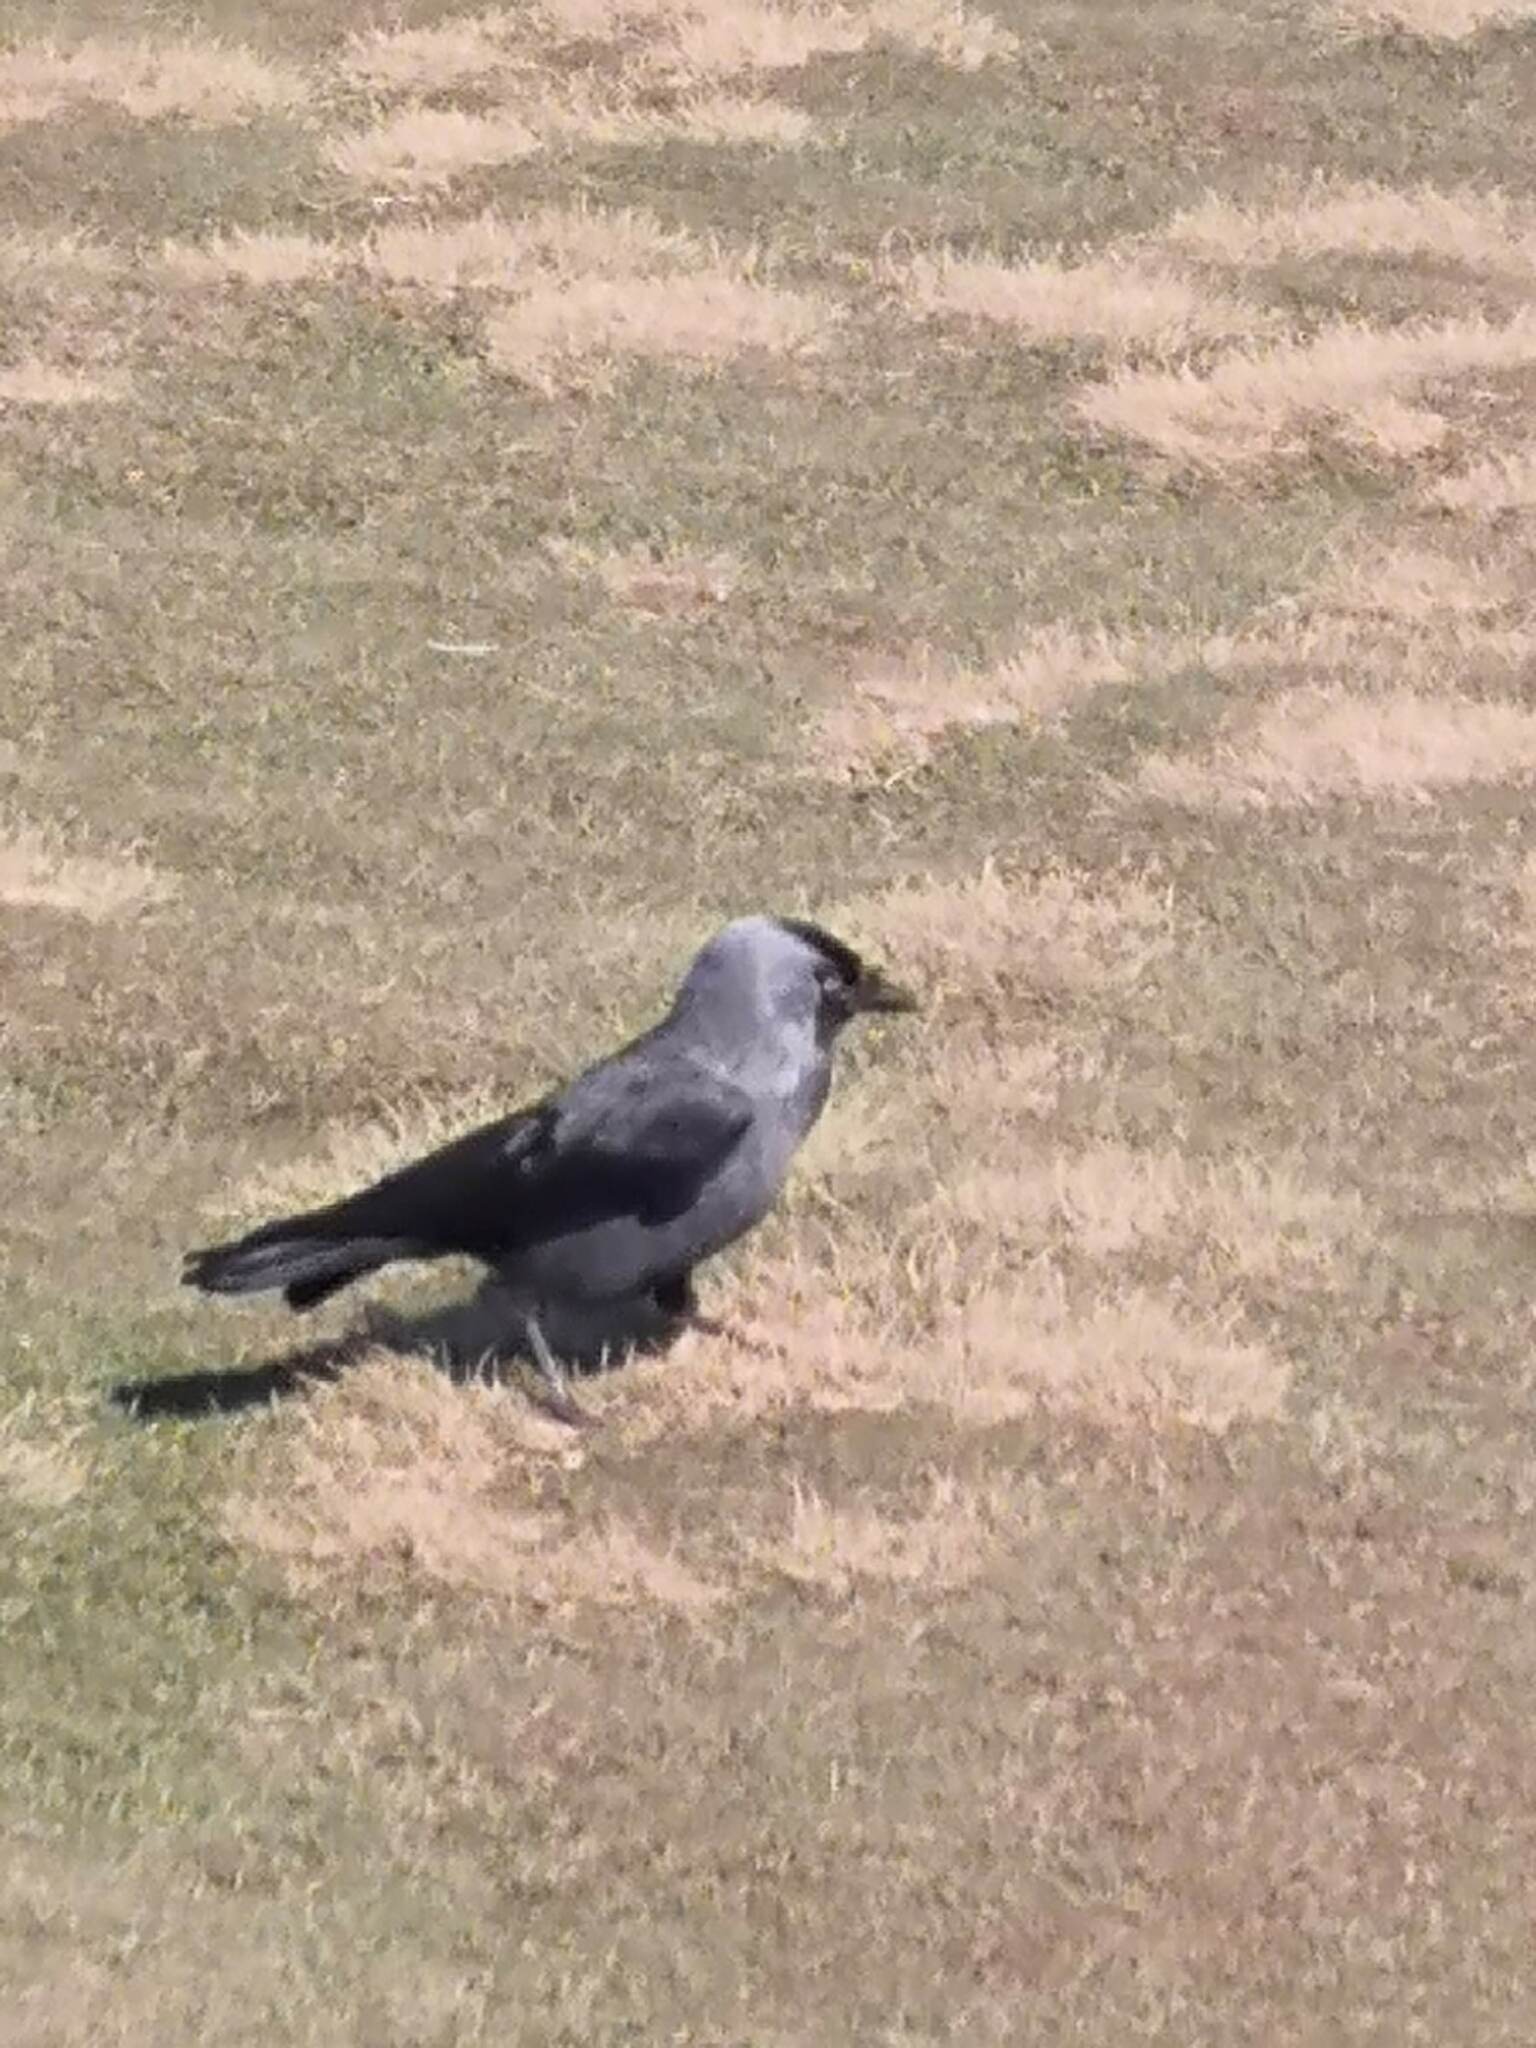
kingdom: Animalia
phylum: Chordata
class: Aves
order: Passeriformes
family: Corvidae
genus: Coloeus
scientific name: Coloeus monedula
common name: Western jackdaw
